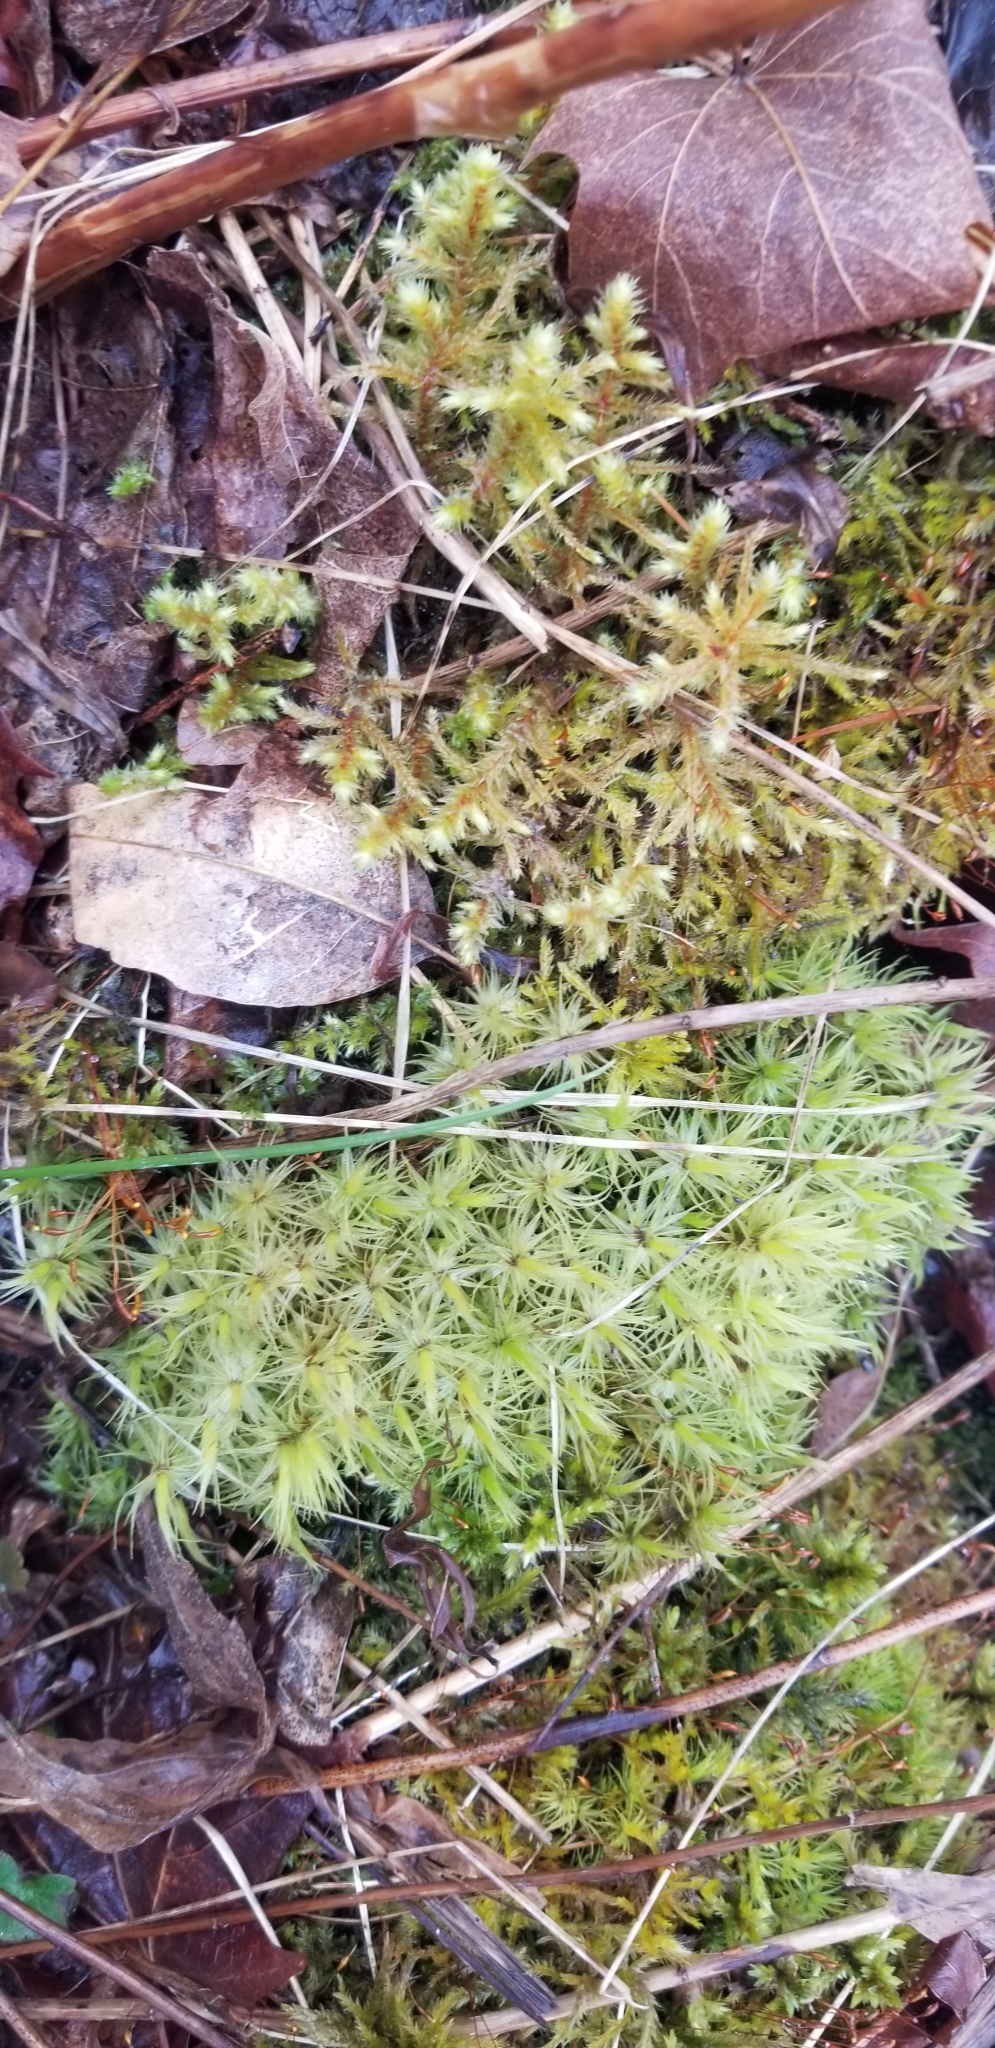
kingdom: Plantae
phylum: Bryophyta
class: Bryopsida
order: Dicranales
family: Dicranaceae
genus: Dicranum
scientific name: Dicranum polysetum
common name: Rugose fork-moss
